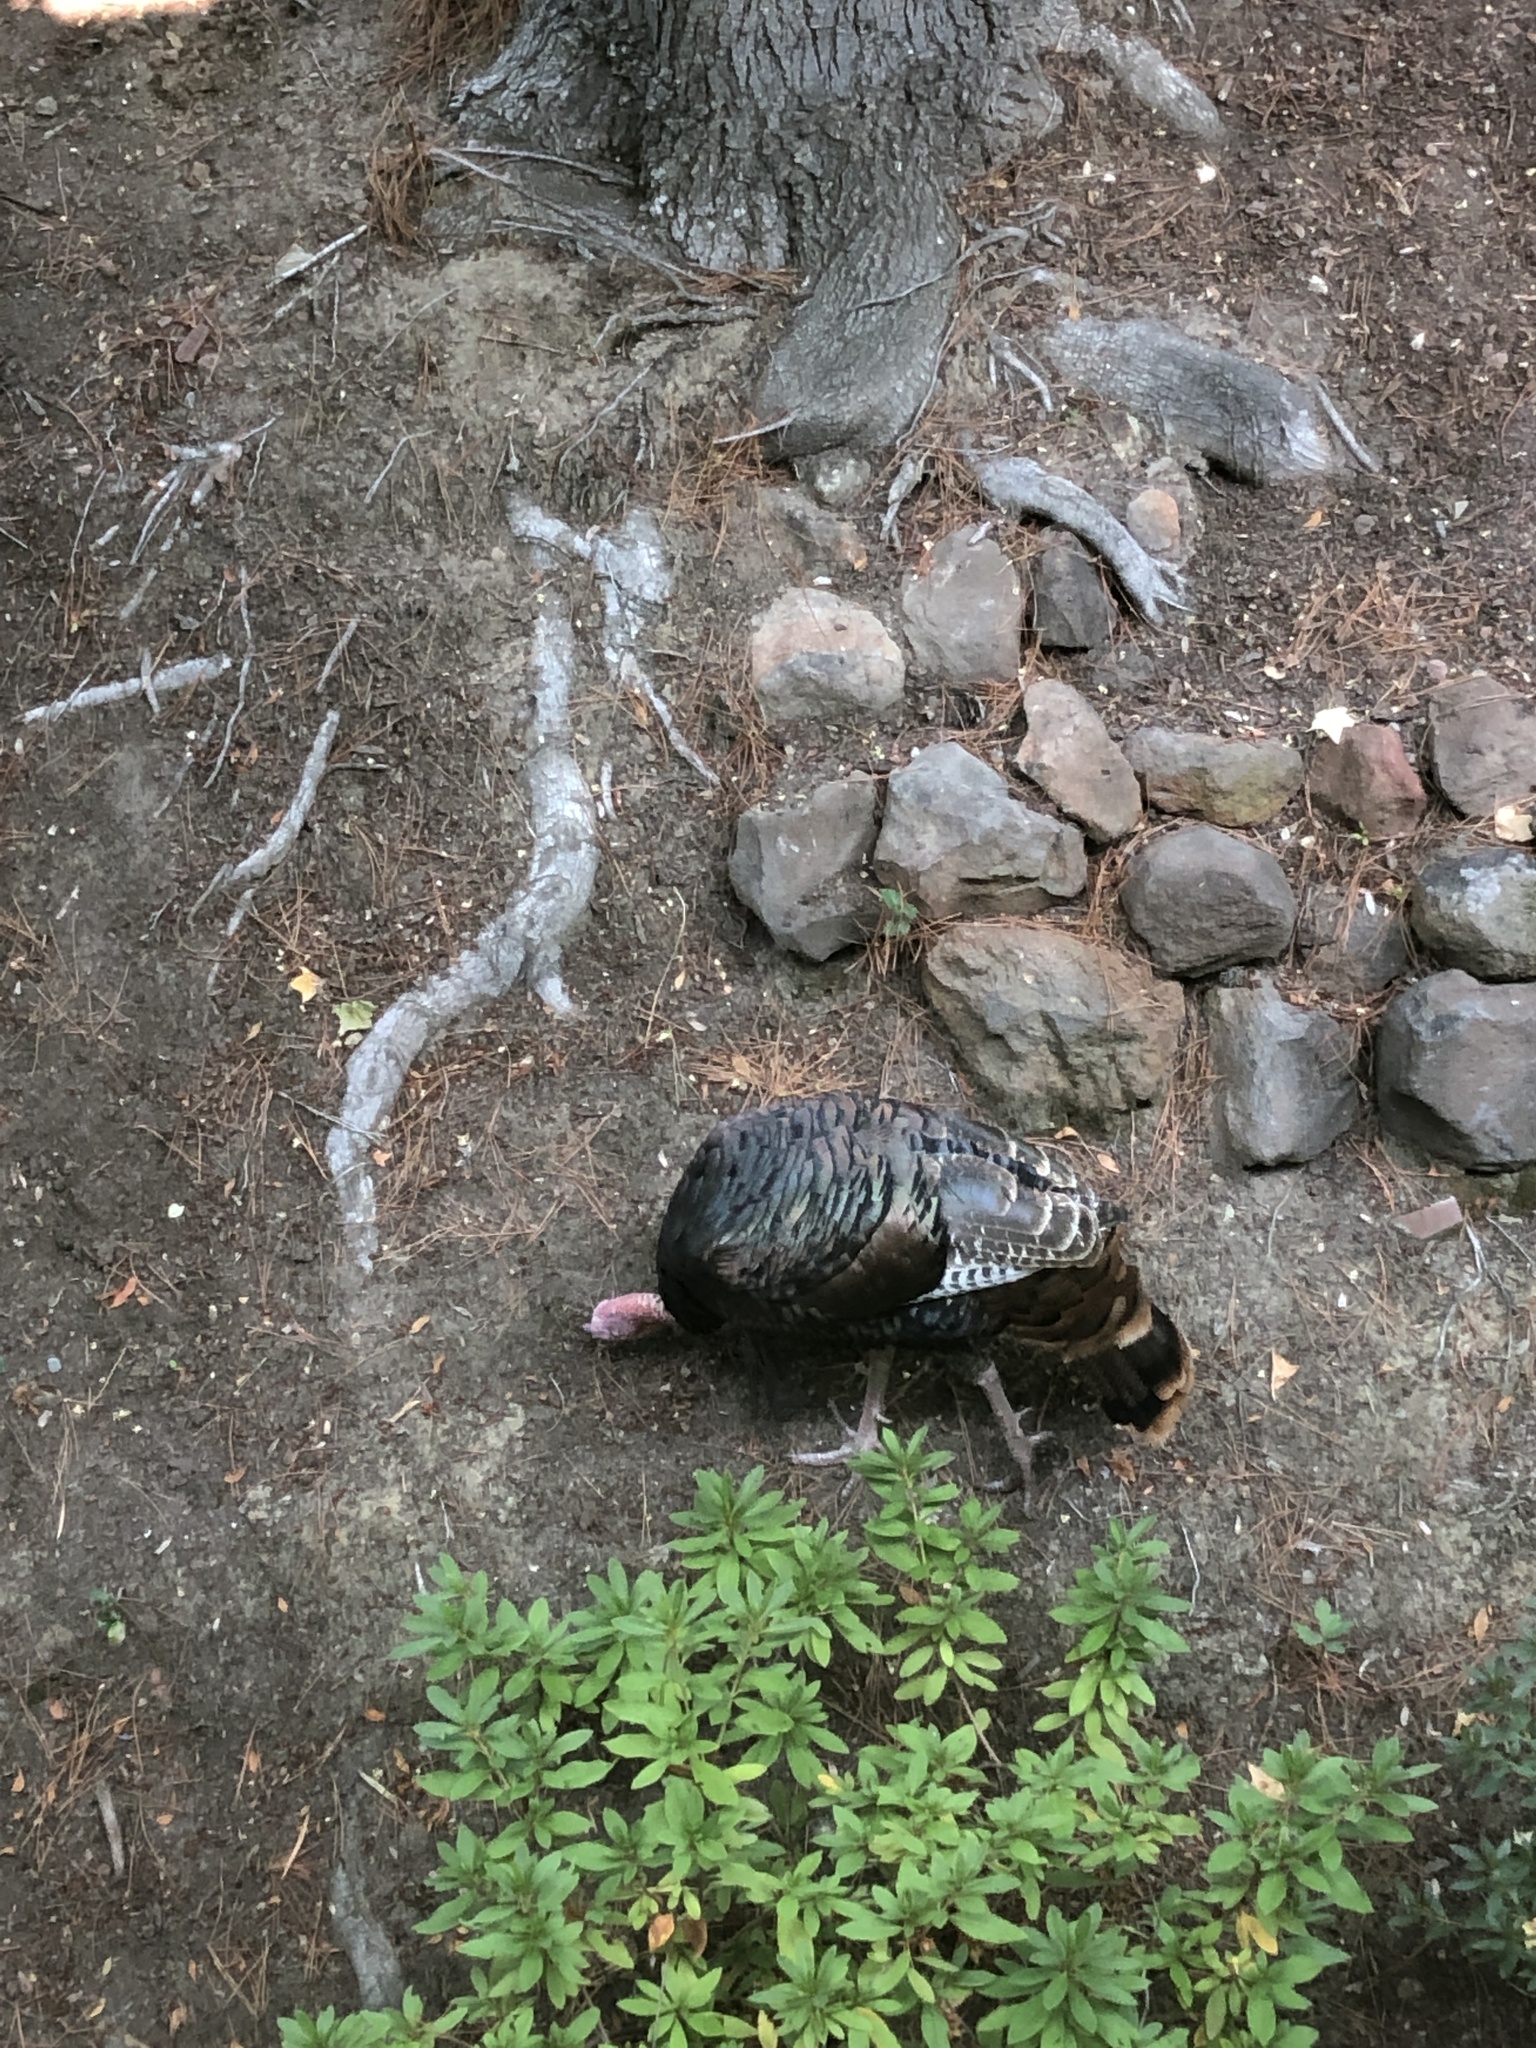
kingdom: Animalia
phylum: Chordata
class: Aves
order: Galliformes
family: Phasianidae
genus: Meleagris
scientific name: Meleagris gallopavo
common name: Wild turkey
